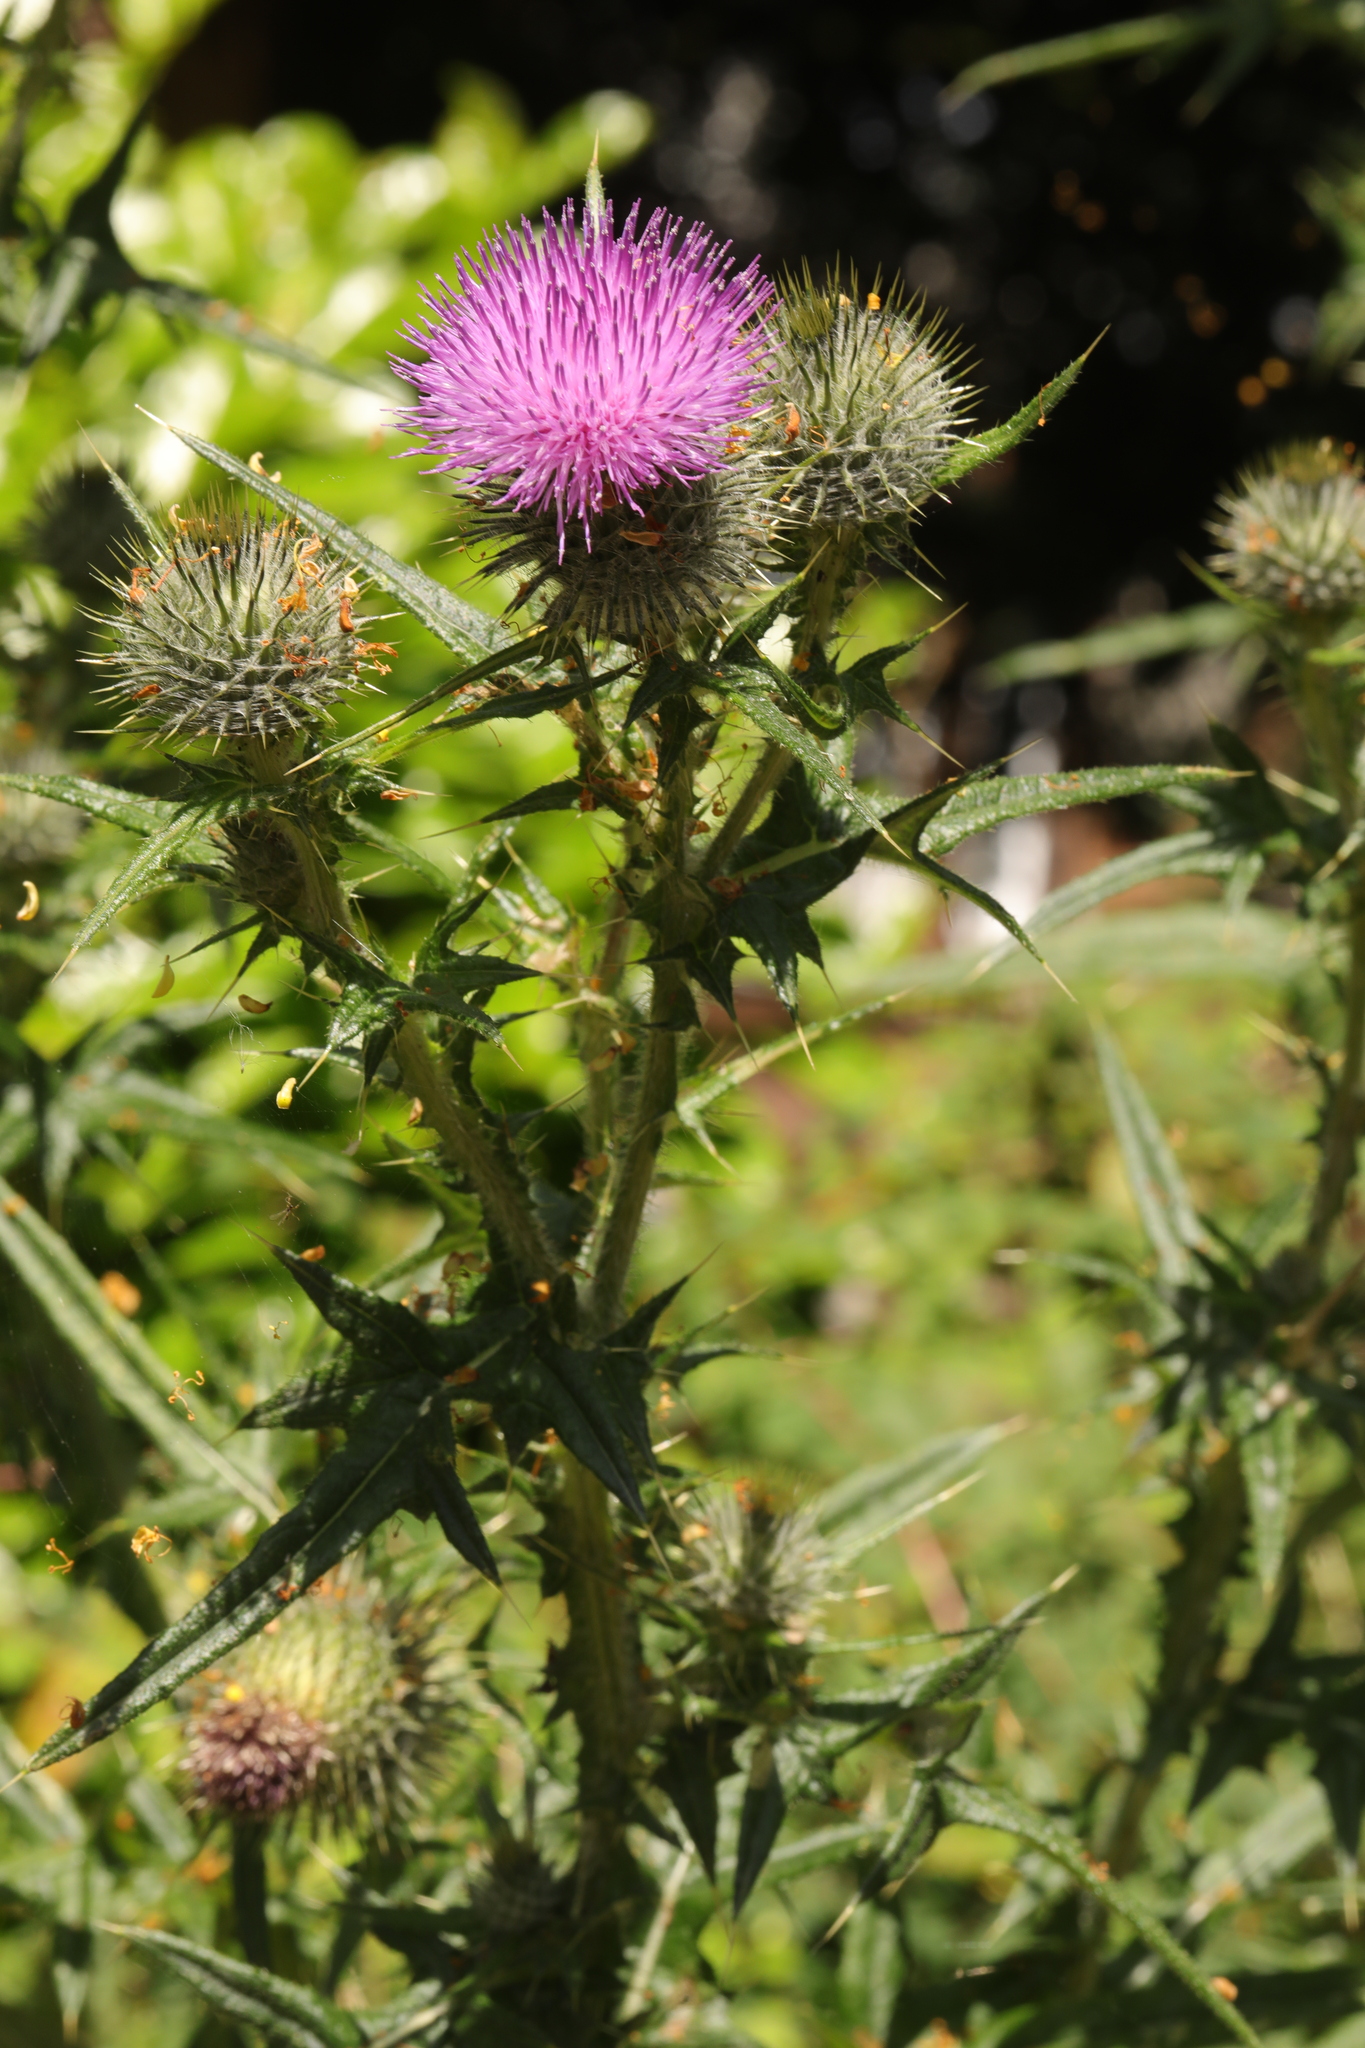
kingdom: Plantae
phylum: Tracheophyta
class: Magnoliopsida
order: Asterales
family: Asteraceae
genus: Cirsium
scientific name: Cirsium vulgare
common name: Bull thistle
